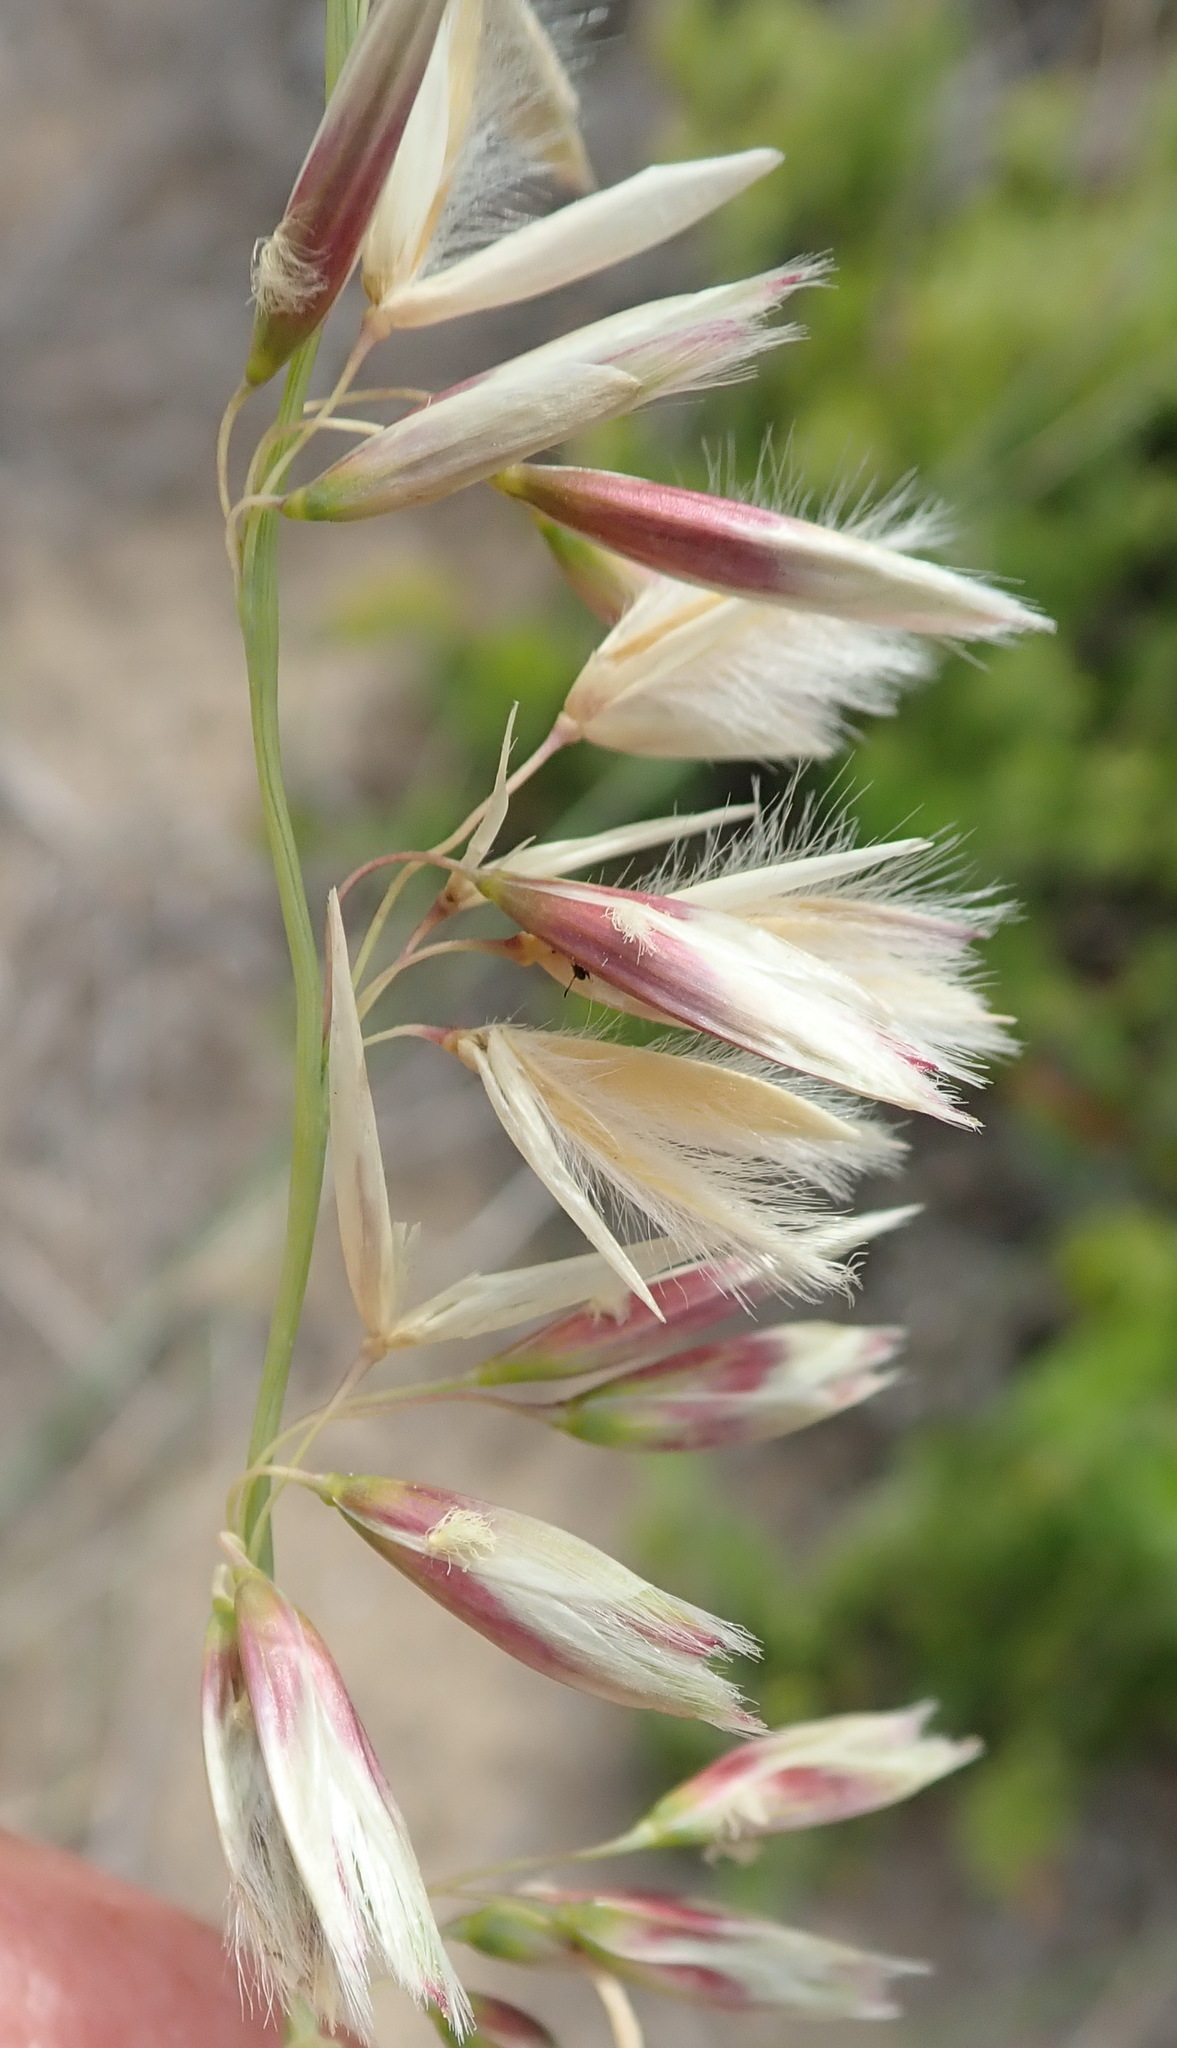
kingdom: Plantae
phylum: Tracheophyta
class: Liliopsida
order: Poales
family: Poaceae
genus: Ehrharta
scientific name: Ehrharta villosa
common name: Pyp grass
